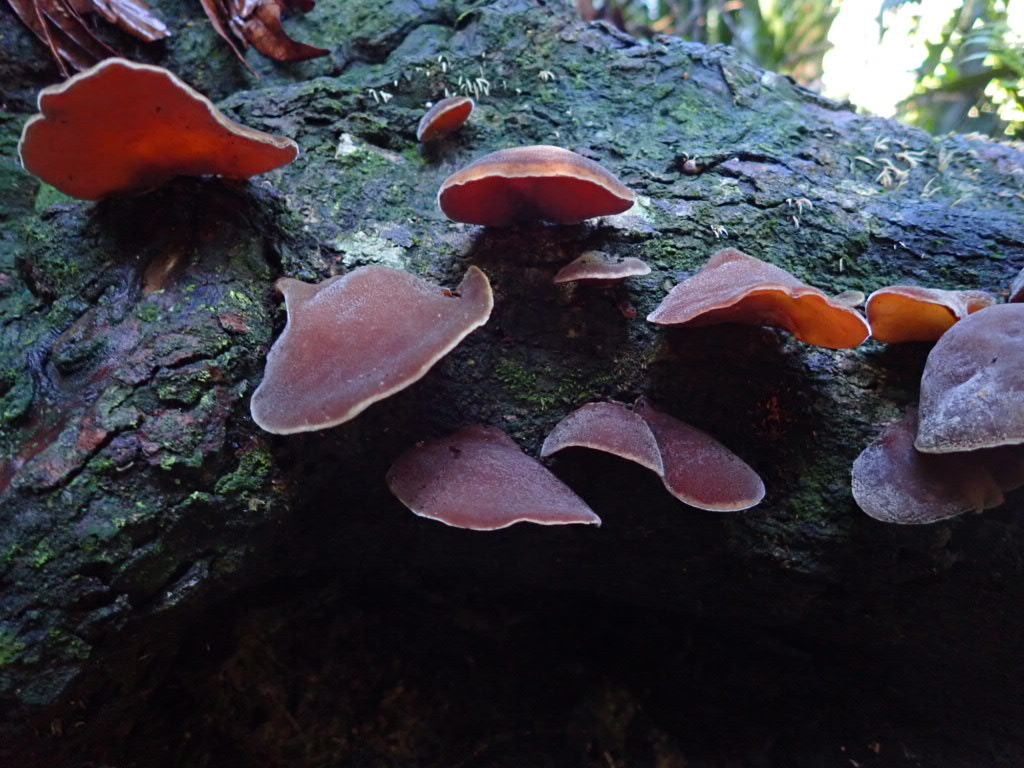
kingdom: Fungi
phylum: Basidiomycota
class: Agaricomycetes
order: Auriculariales
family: Auriculariaceae
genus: Auricularia
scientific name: Auricularia cornea
